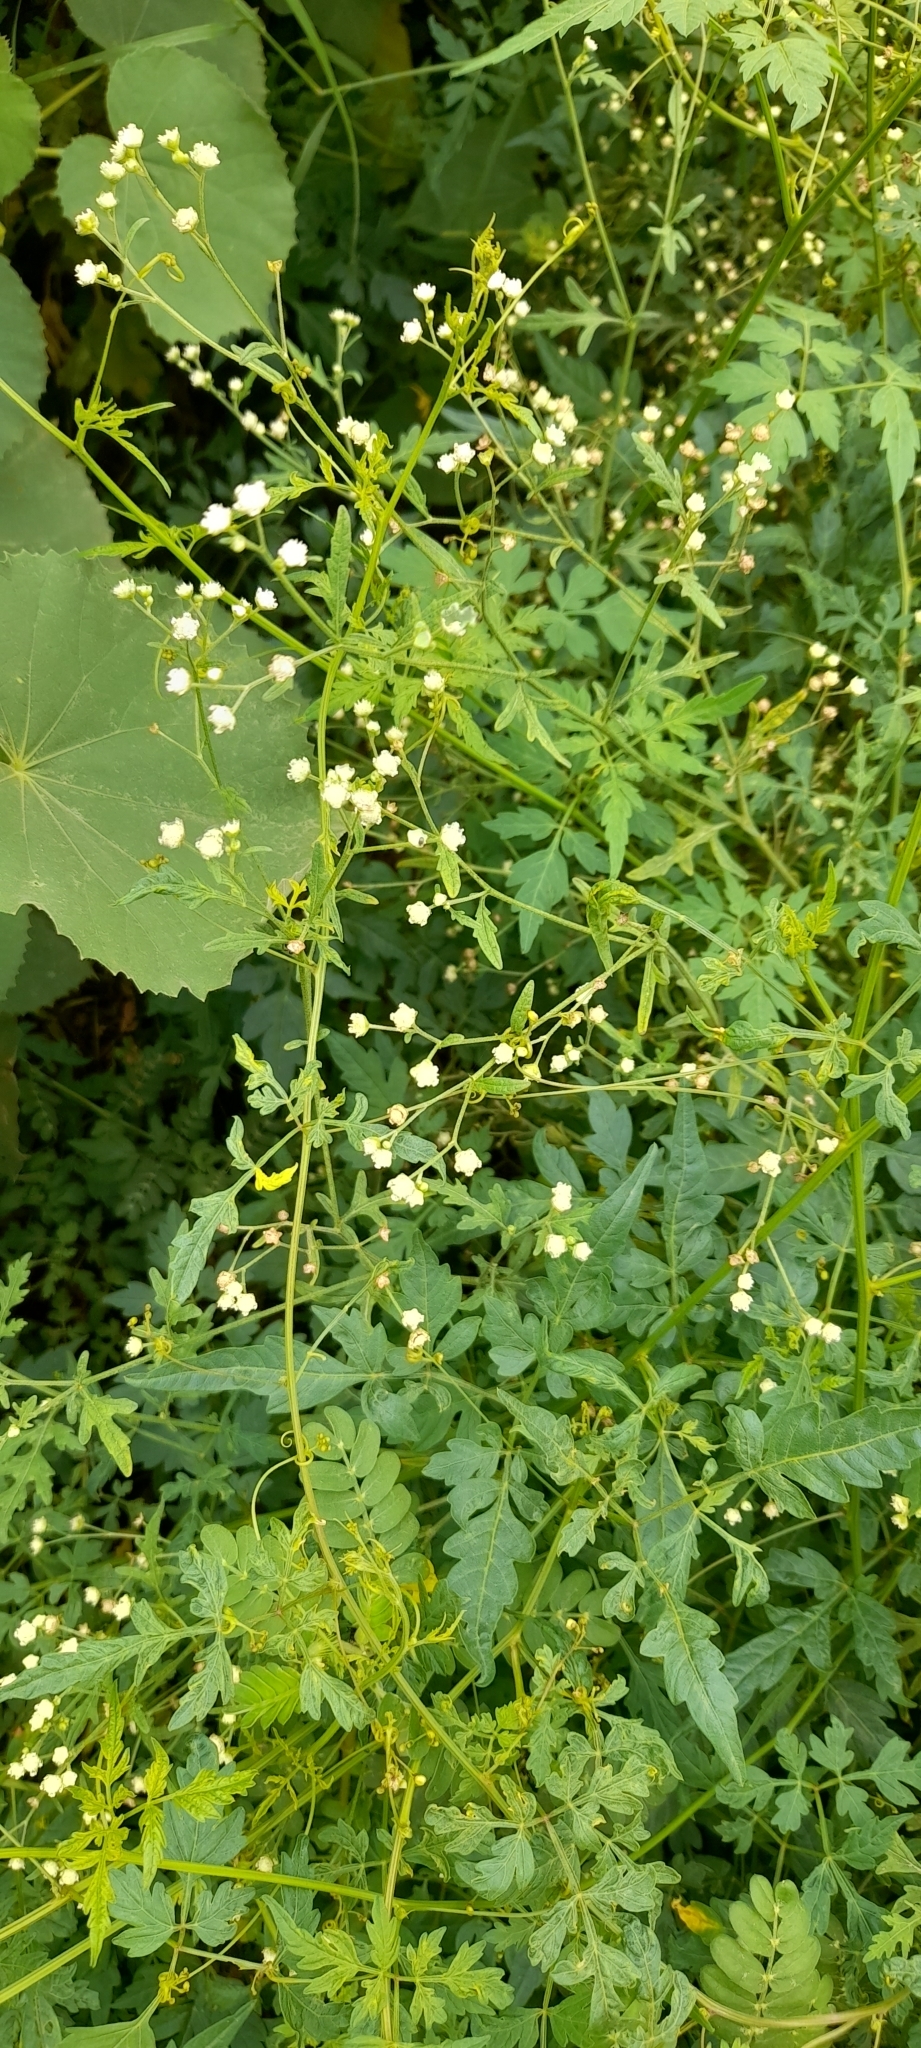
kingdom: Plantae
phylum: Tracheophyta
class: Magnoliopsida
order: Asterales
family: Asteraceae
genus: Parthenium
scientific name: Parthenium hysterophorus
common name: Santa maria feverfew
